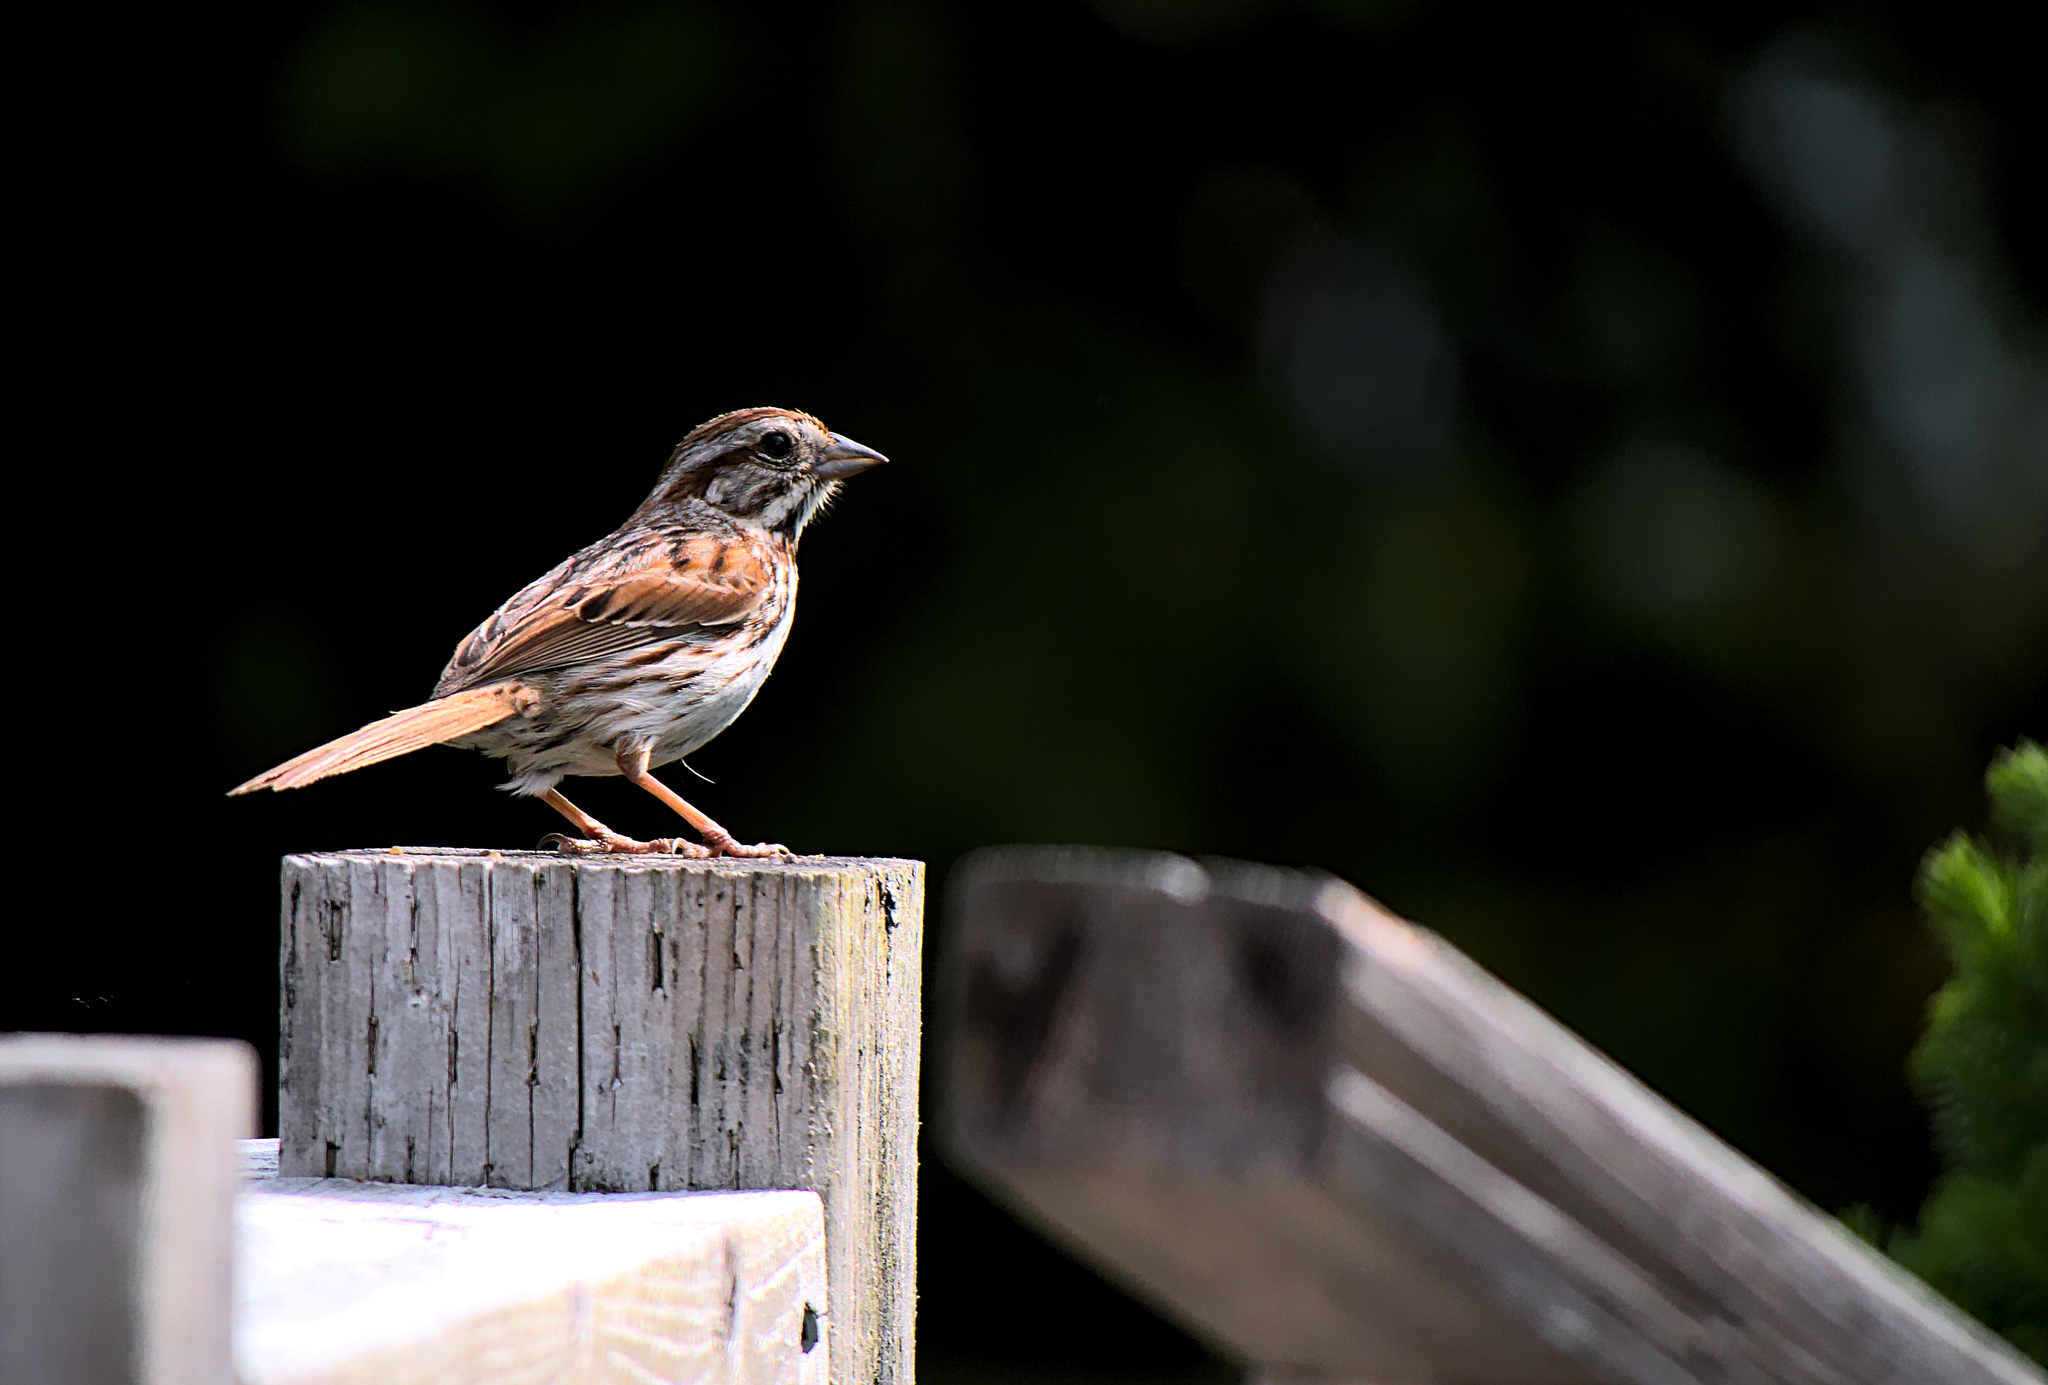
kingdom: Animalia
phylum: Chordata
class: Aves
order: Passeriformes
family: Passerellidae
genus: Melospiza
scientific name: Melospiza melodia
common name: Song sparrow
